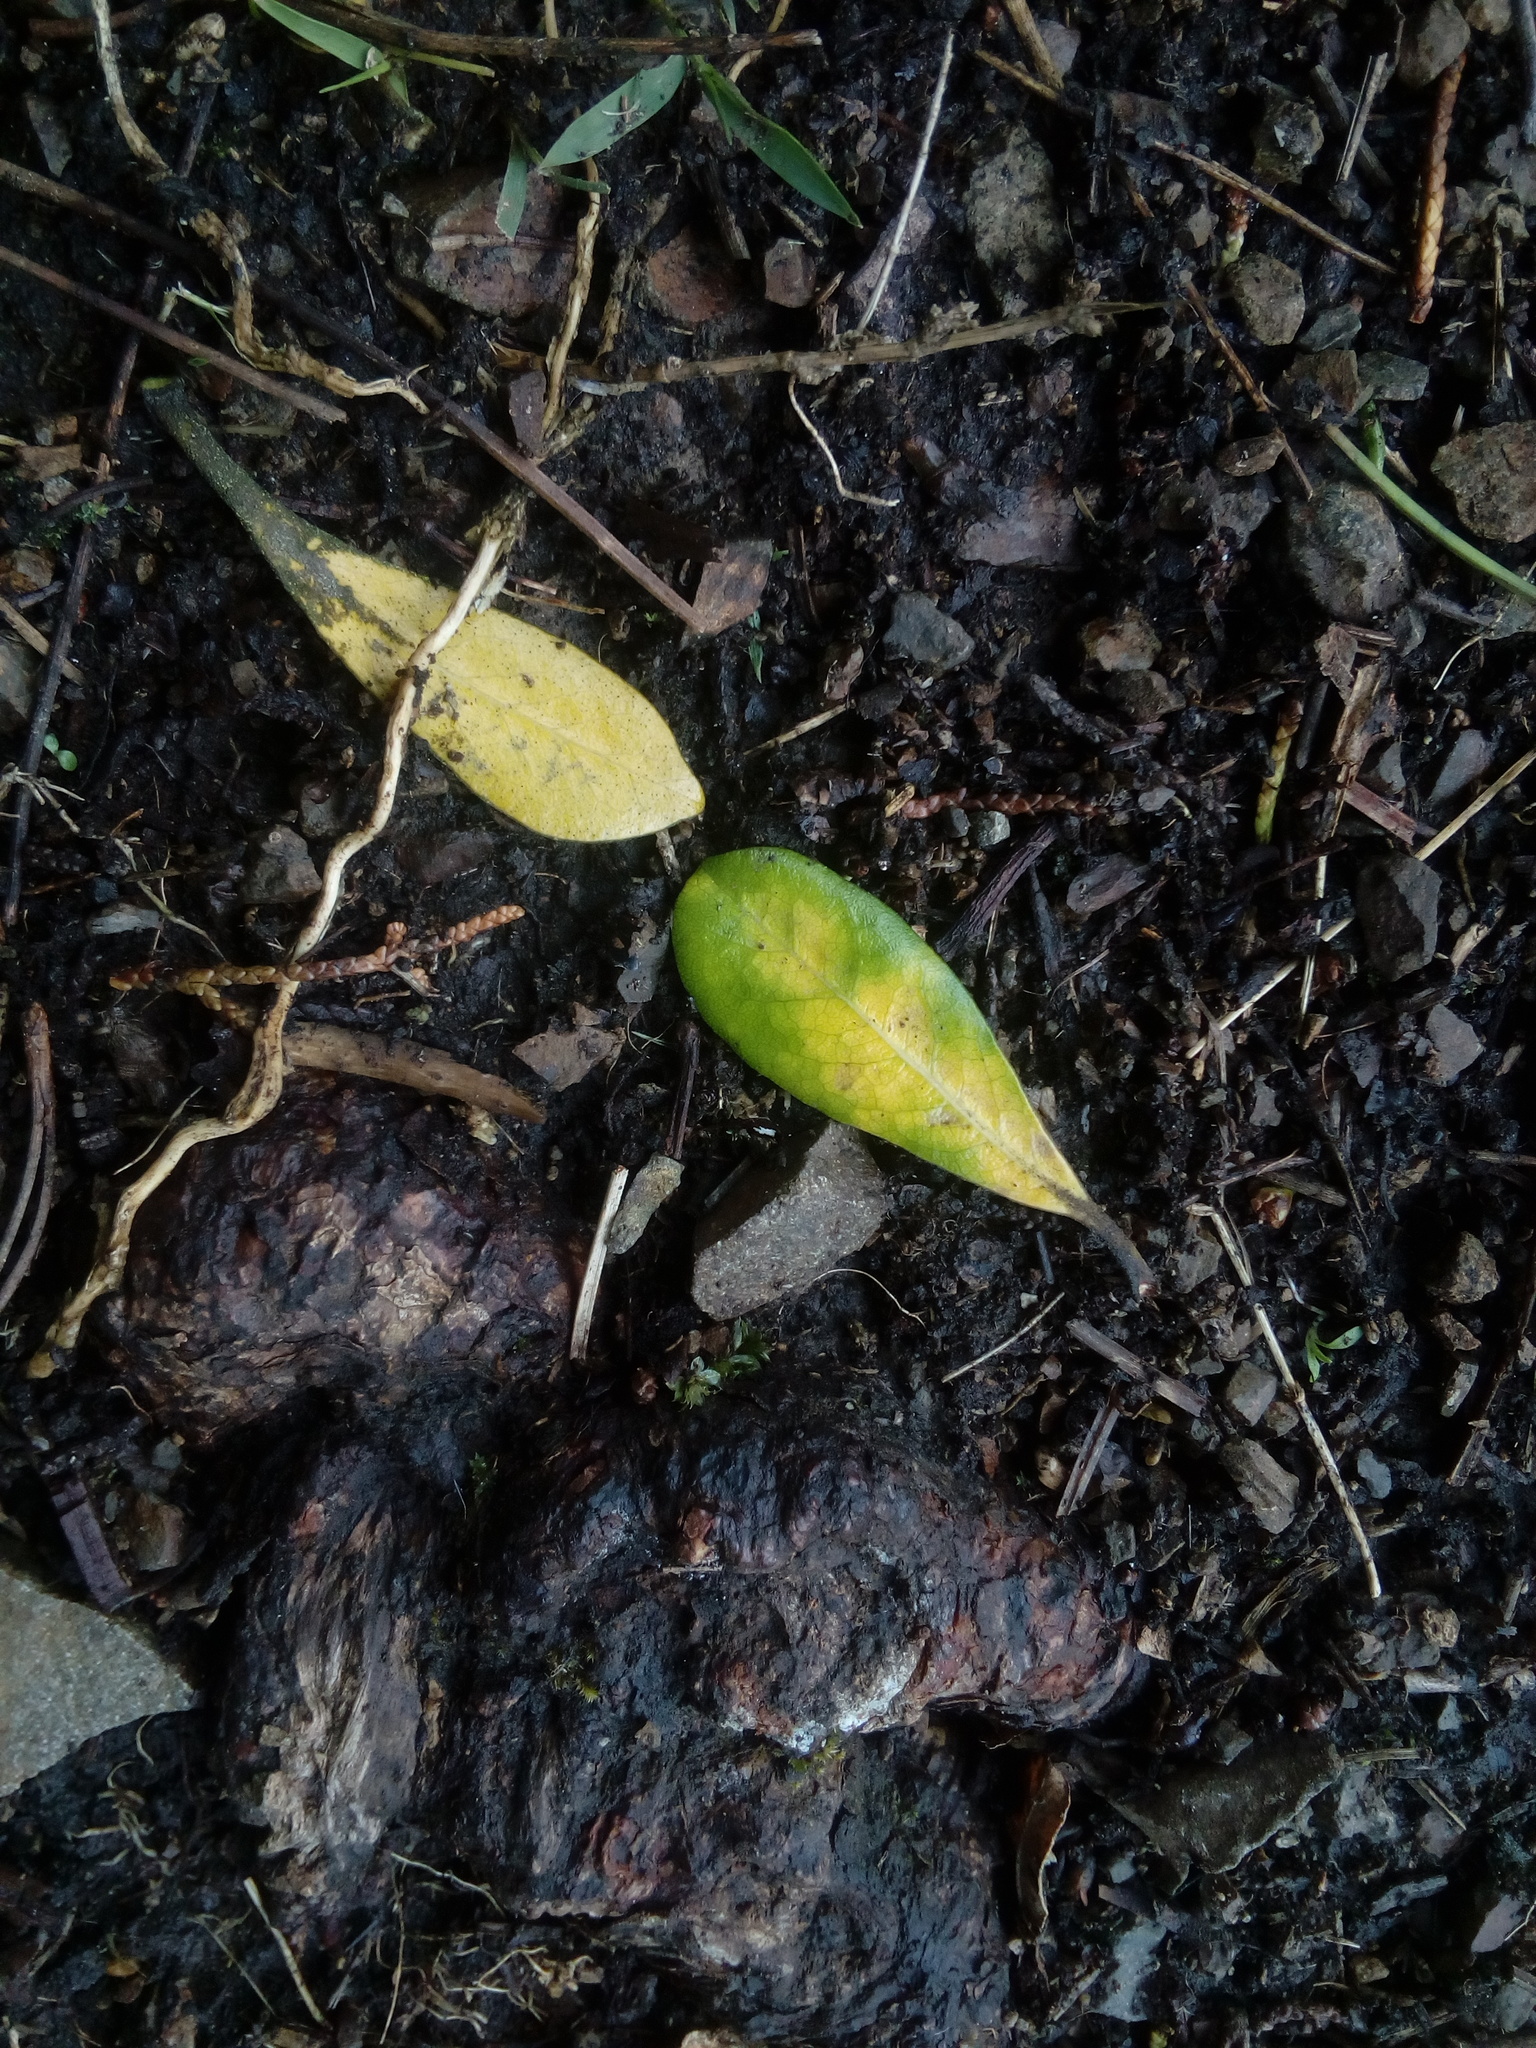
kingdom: Plantae
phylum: Tracheophyta
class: Magnoliopsida
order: Apiales
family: Pittosporaceae
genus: Pittosporum
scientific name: Pittosporum crassifolium
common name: Karo
